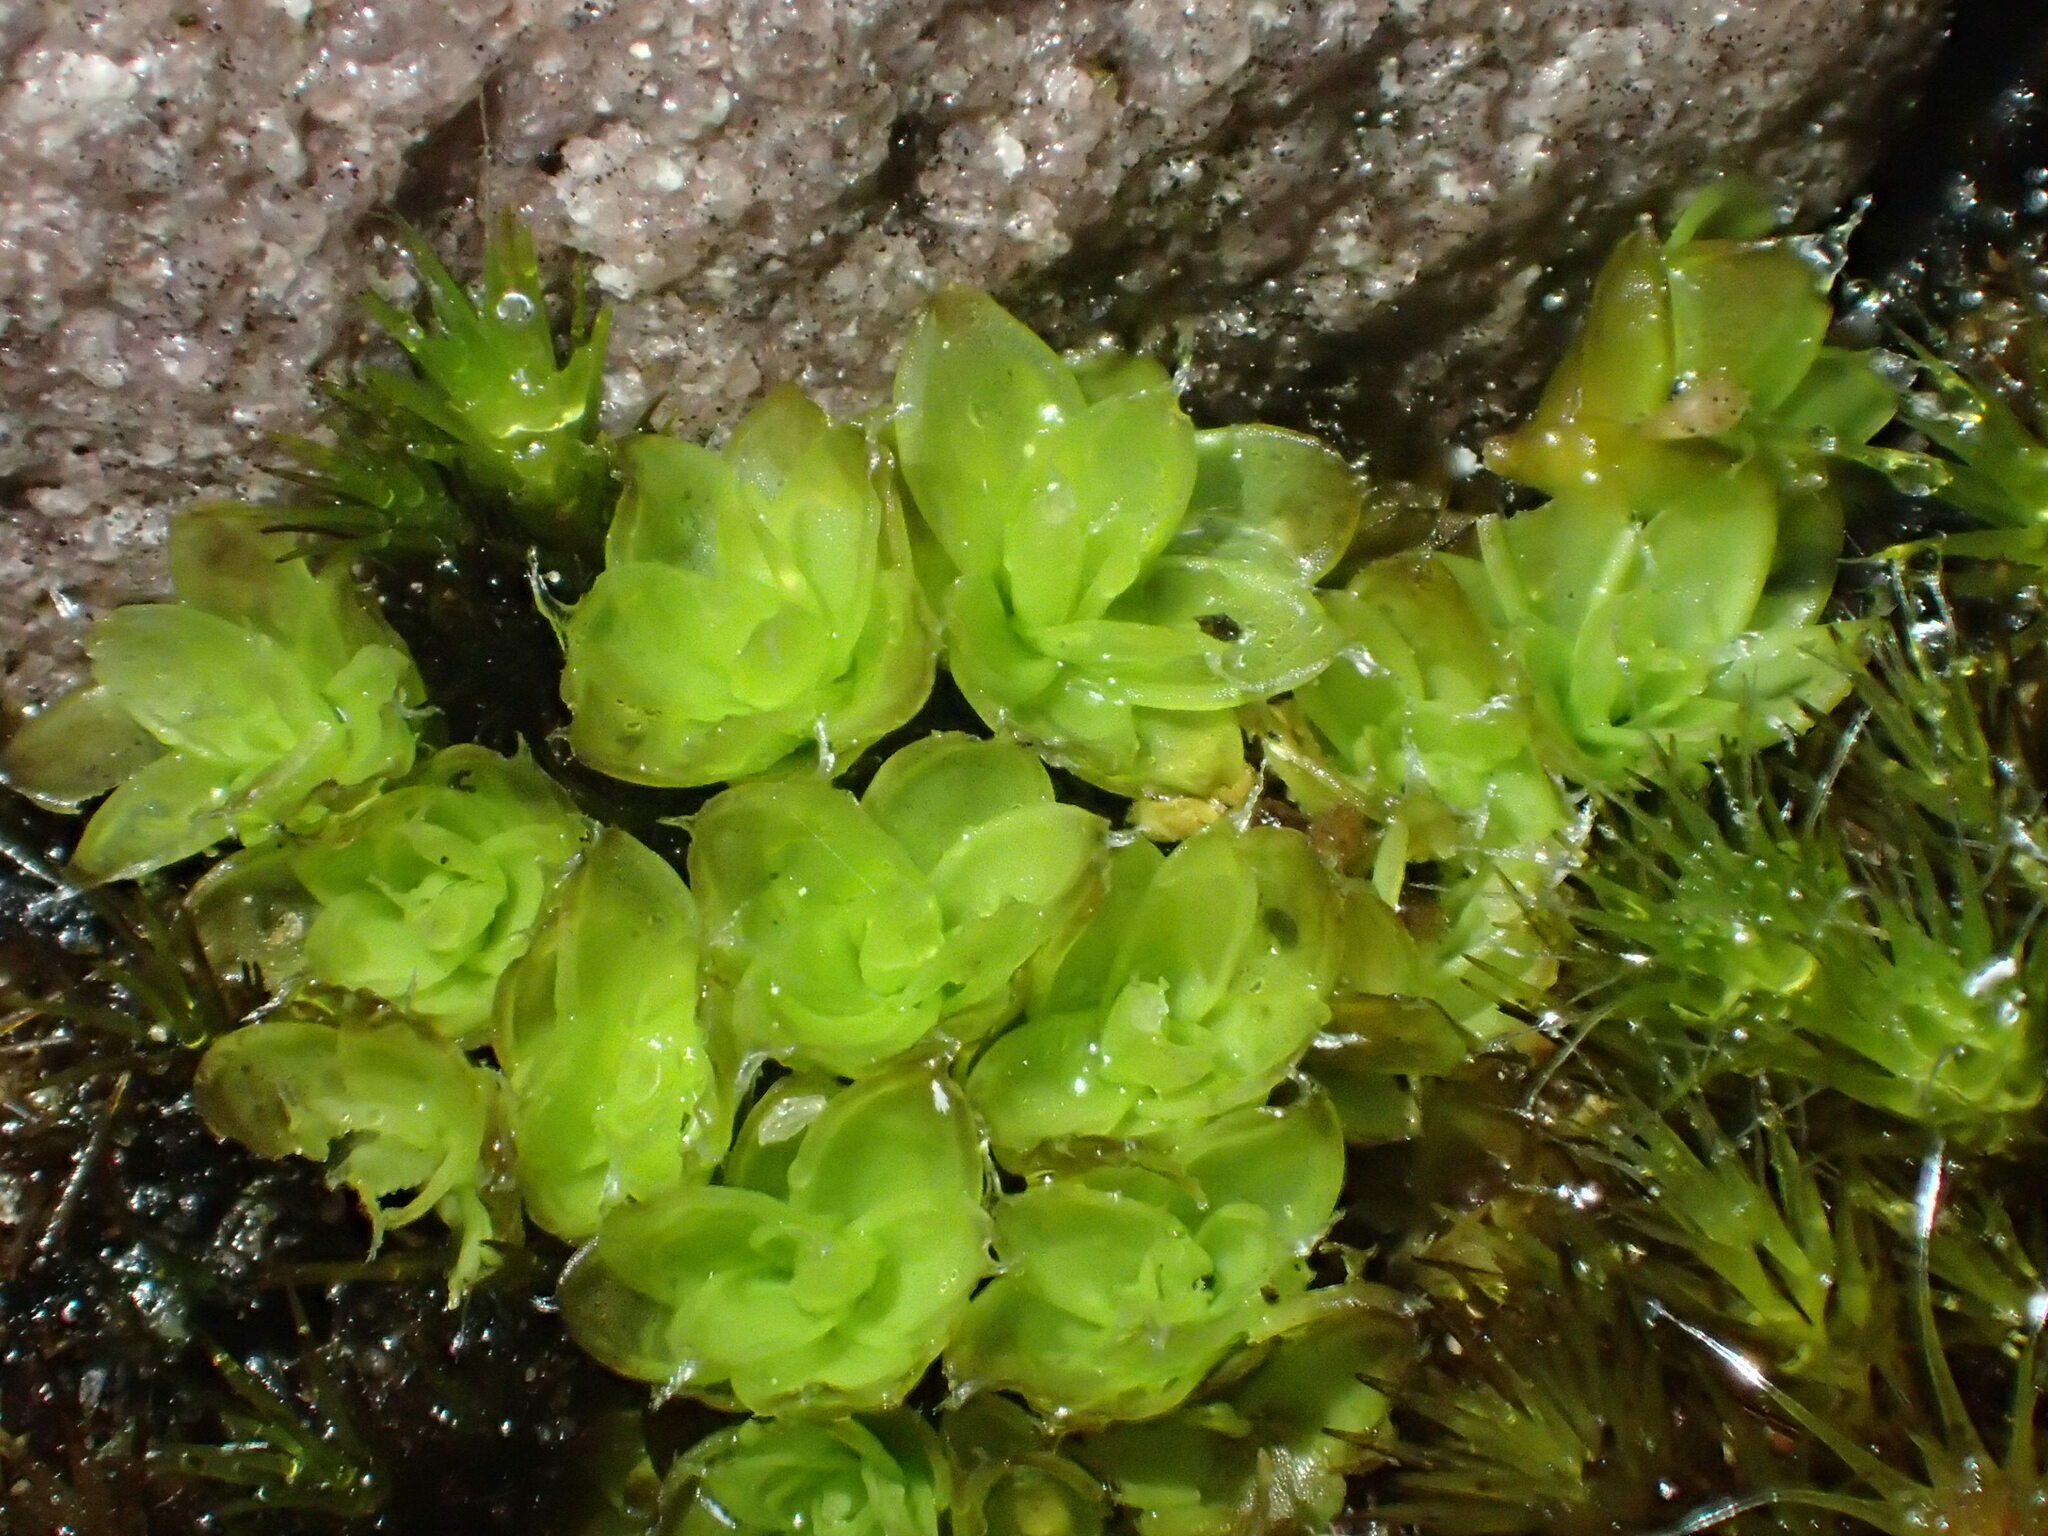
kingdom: Plantae
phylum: Bryophyta
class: Bryopsida
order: Pottiales
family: Pleurophascaceae
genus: Pleurophascum
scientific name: Pleurophascum occidentale
